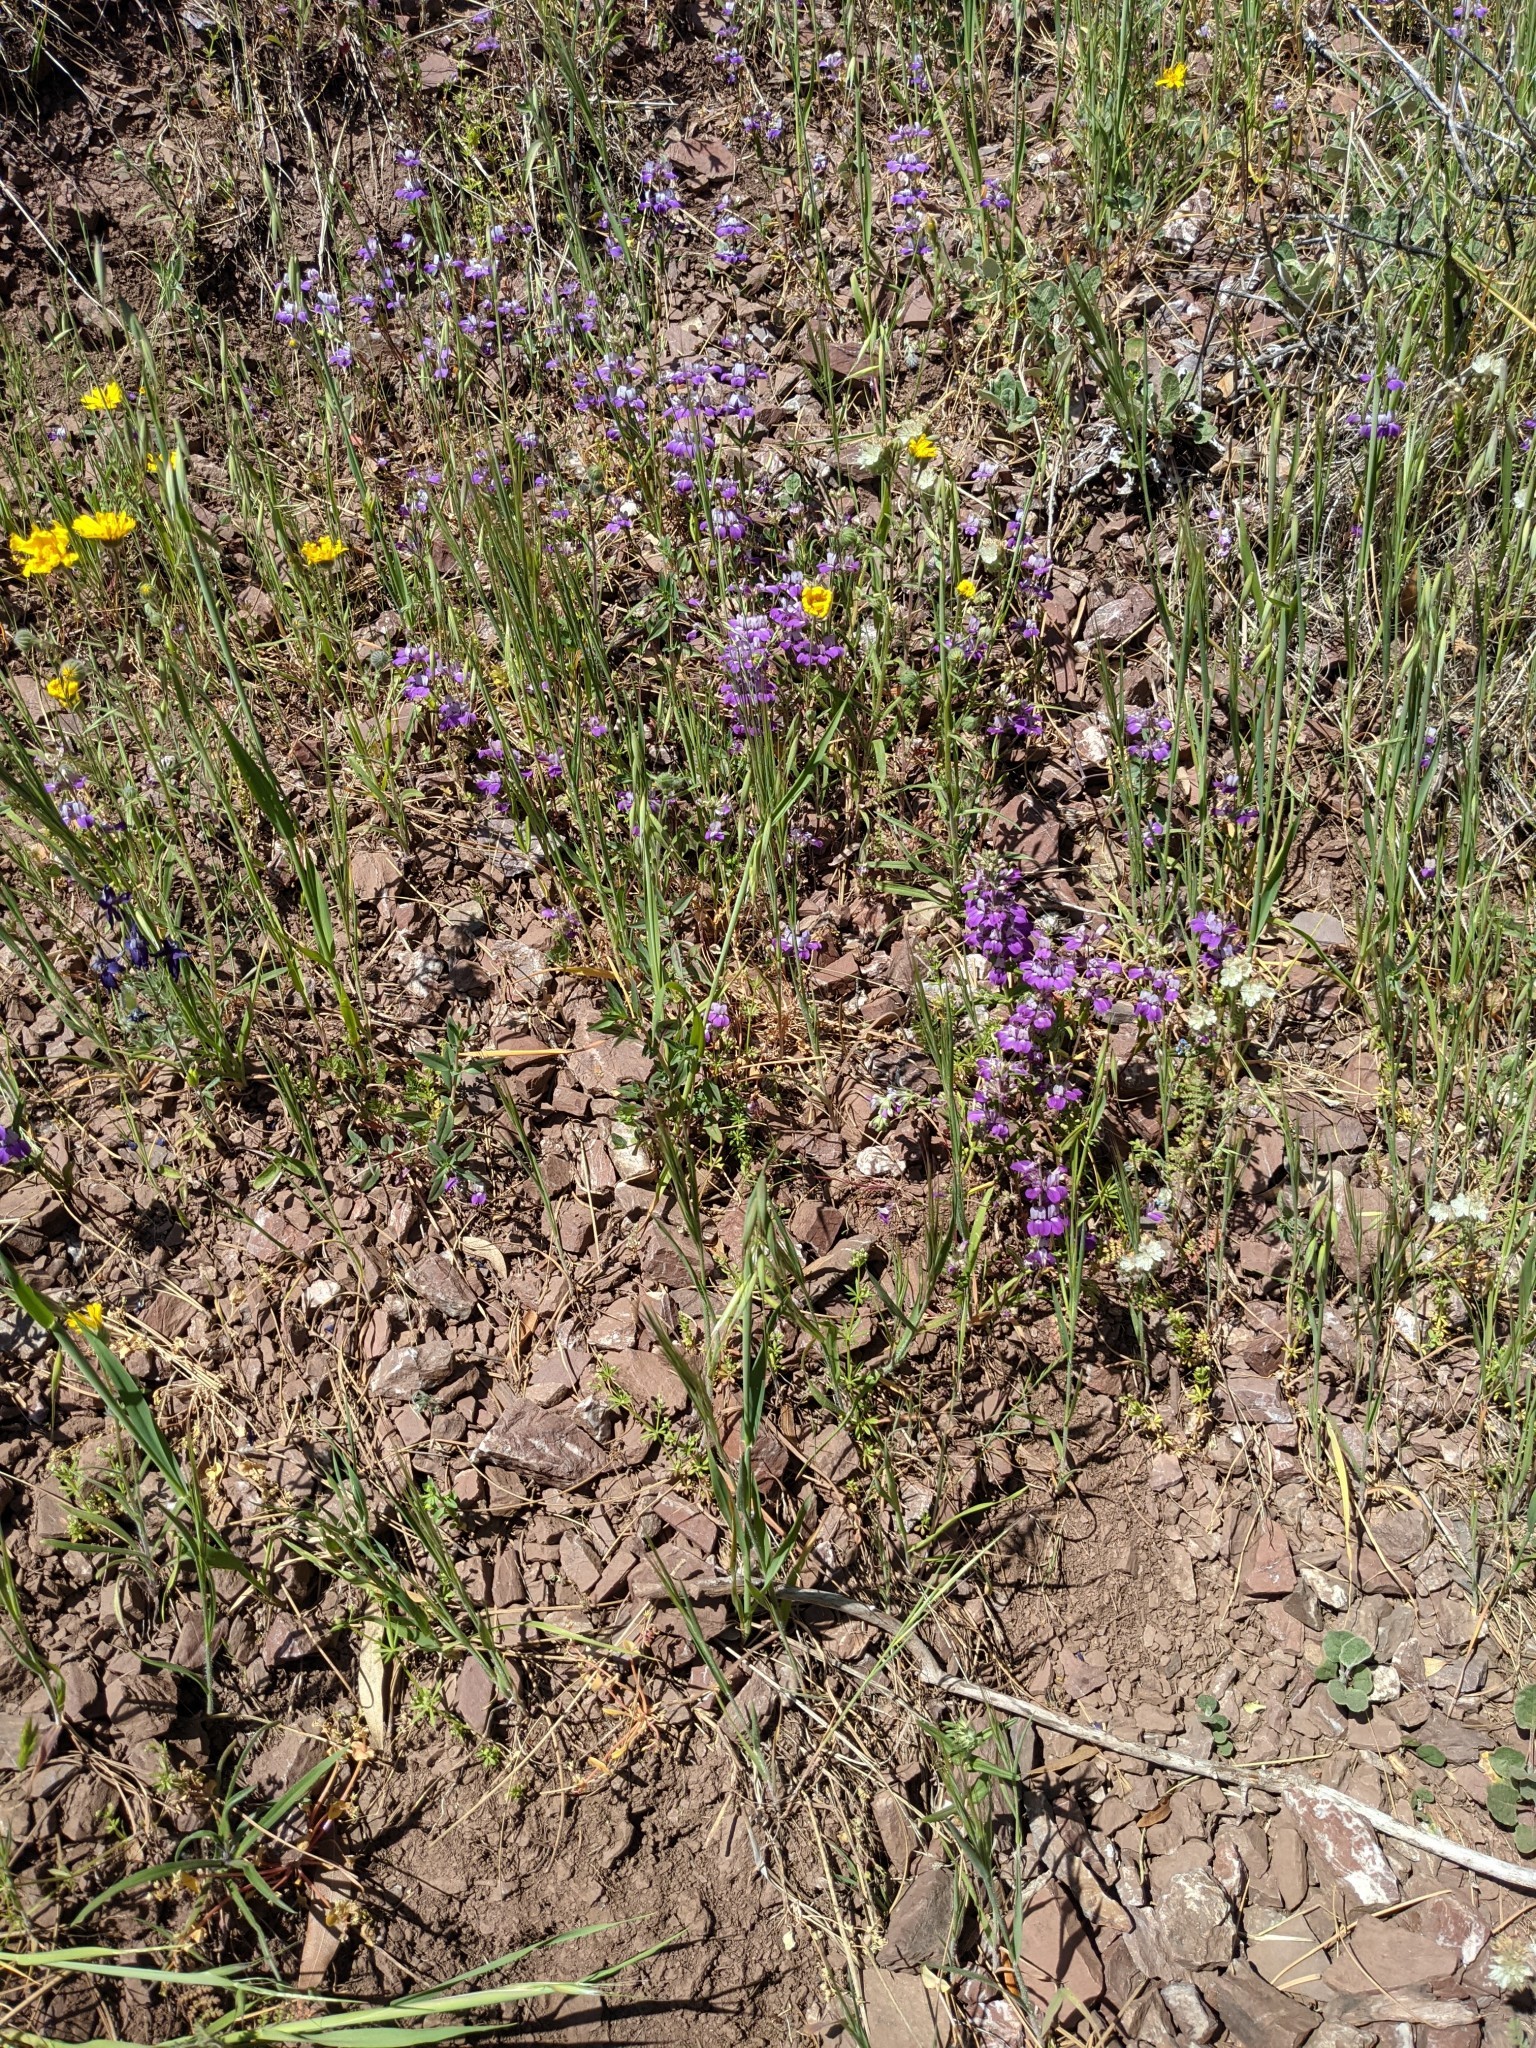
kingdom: Plantae
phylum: Tracheophyta
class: Magnoliopsida
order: Lamiales
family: Plantaginaceae
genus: Collinsia
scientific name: Collinsia heterophylla
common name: Chinese-houses
